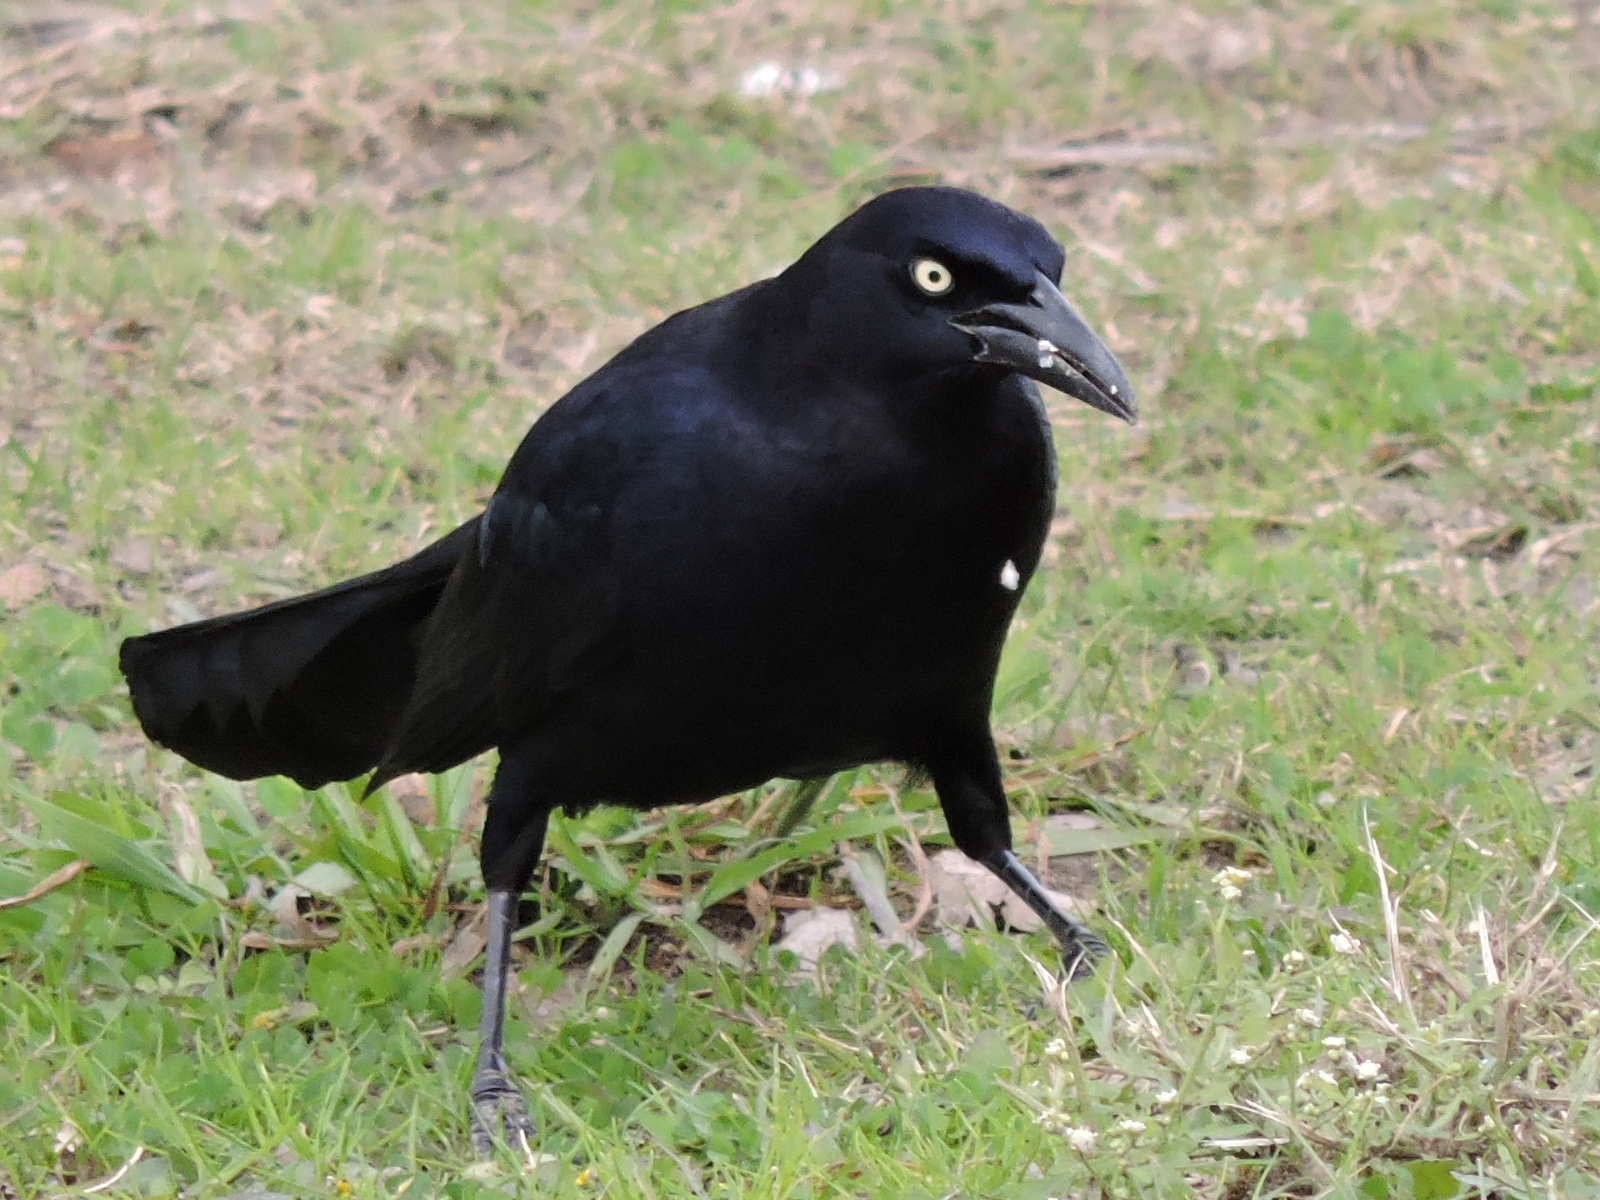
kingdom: Animalia
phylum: Chordata
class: Aves
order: Passeriformes
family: Icteridae
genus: Quiscalus
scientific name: Quiscalus mexicanus
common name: Great-tailed grackle
